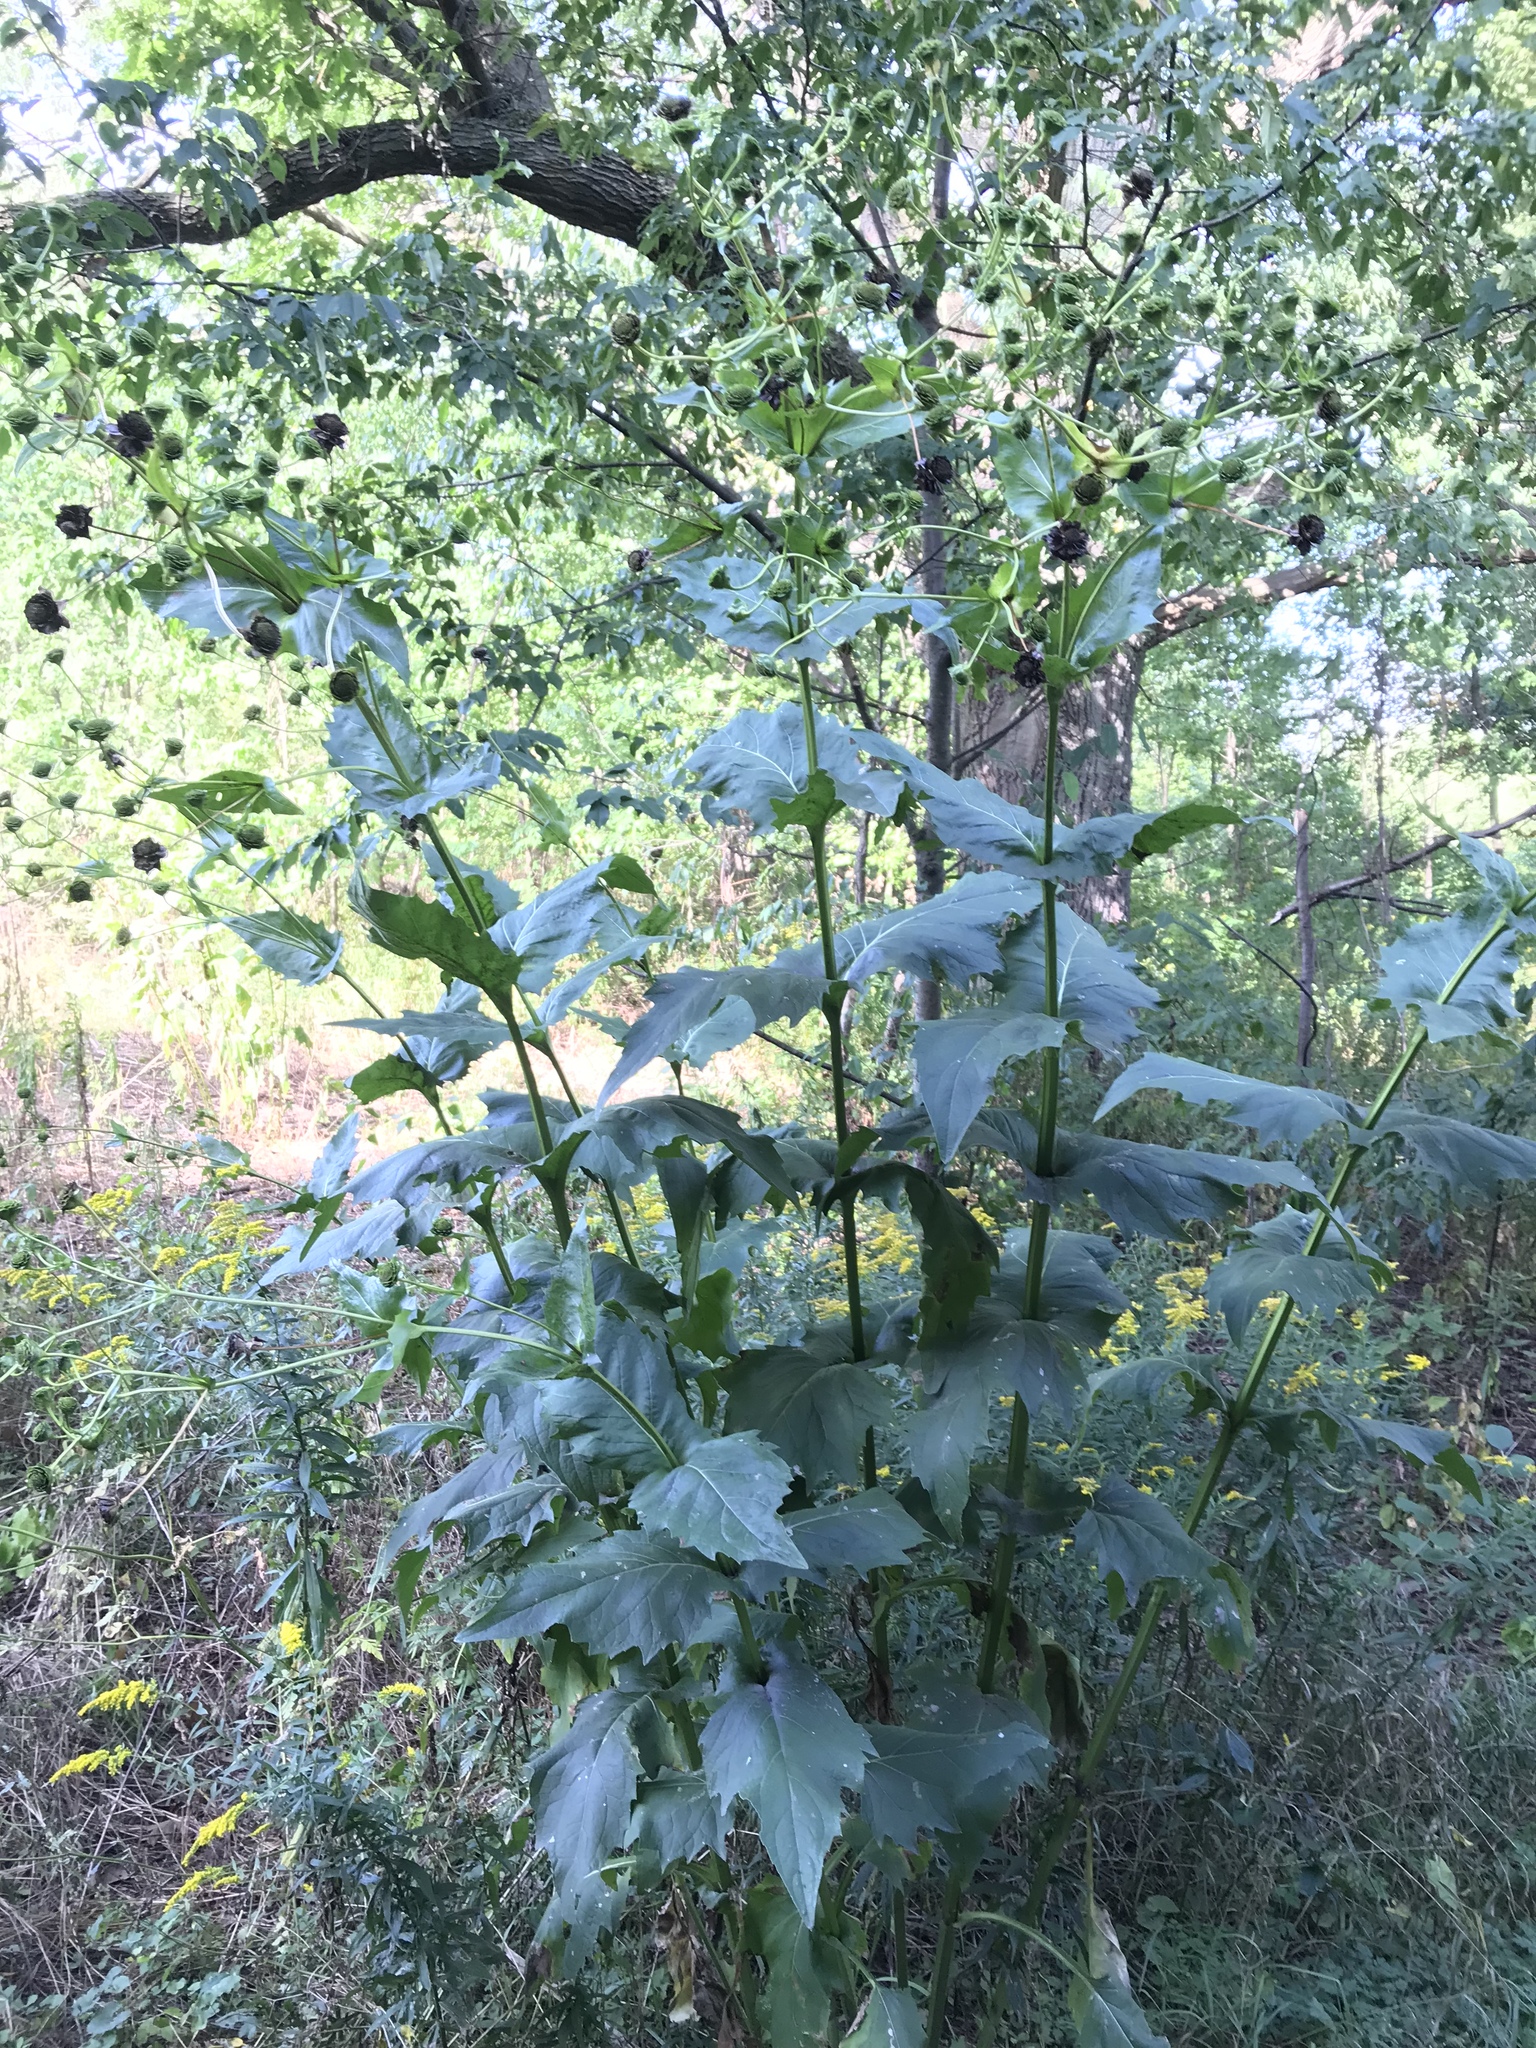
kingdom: Plantae
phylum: Tracheophyta
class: Magnoliopsida
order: Asterales
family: Asteraceae
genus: Silphium
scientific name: Silphium perfoliatum
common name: Cup-plant
